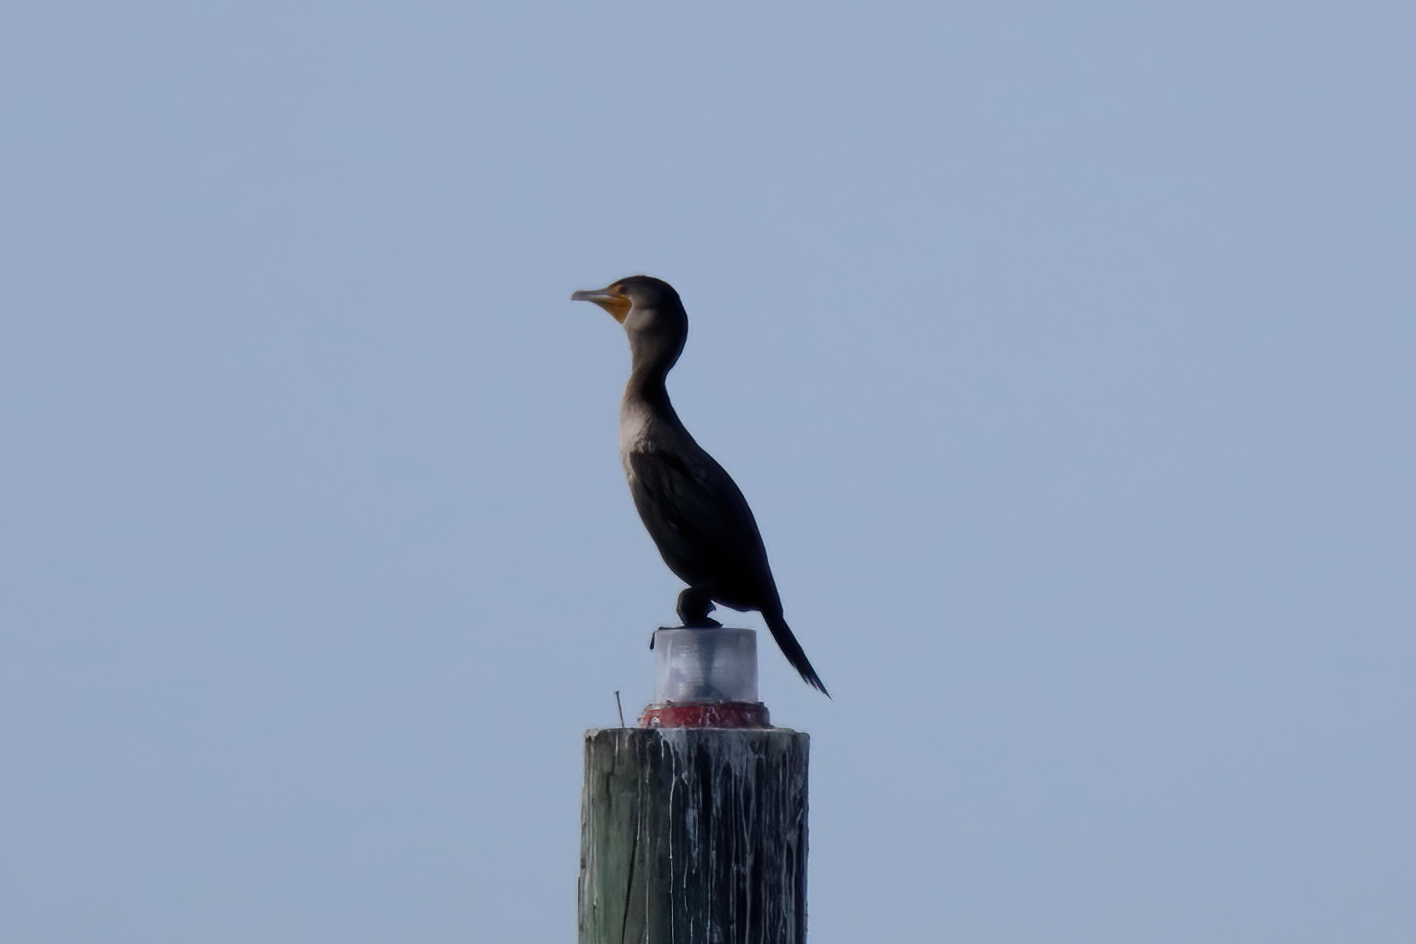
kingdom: Animalia
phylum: Chordata
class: Aves
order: Suliformes
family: Phalacrocoracidae
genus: Phalacrocorax
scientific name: Phalacrocorax auritus
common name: Double-crested cormorant
